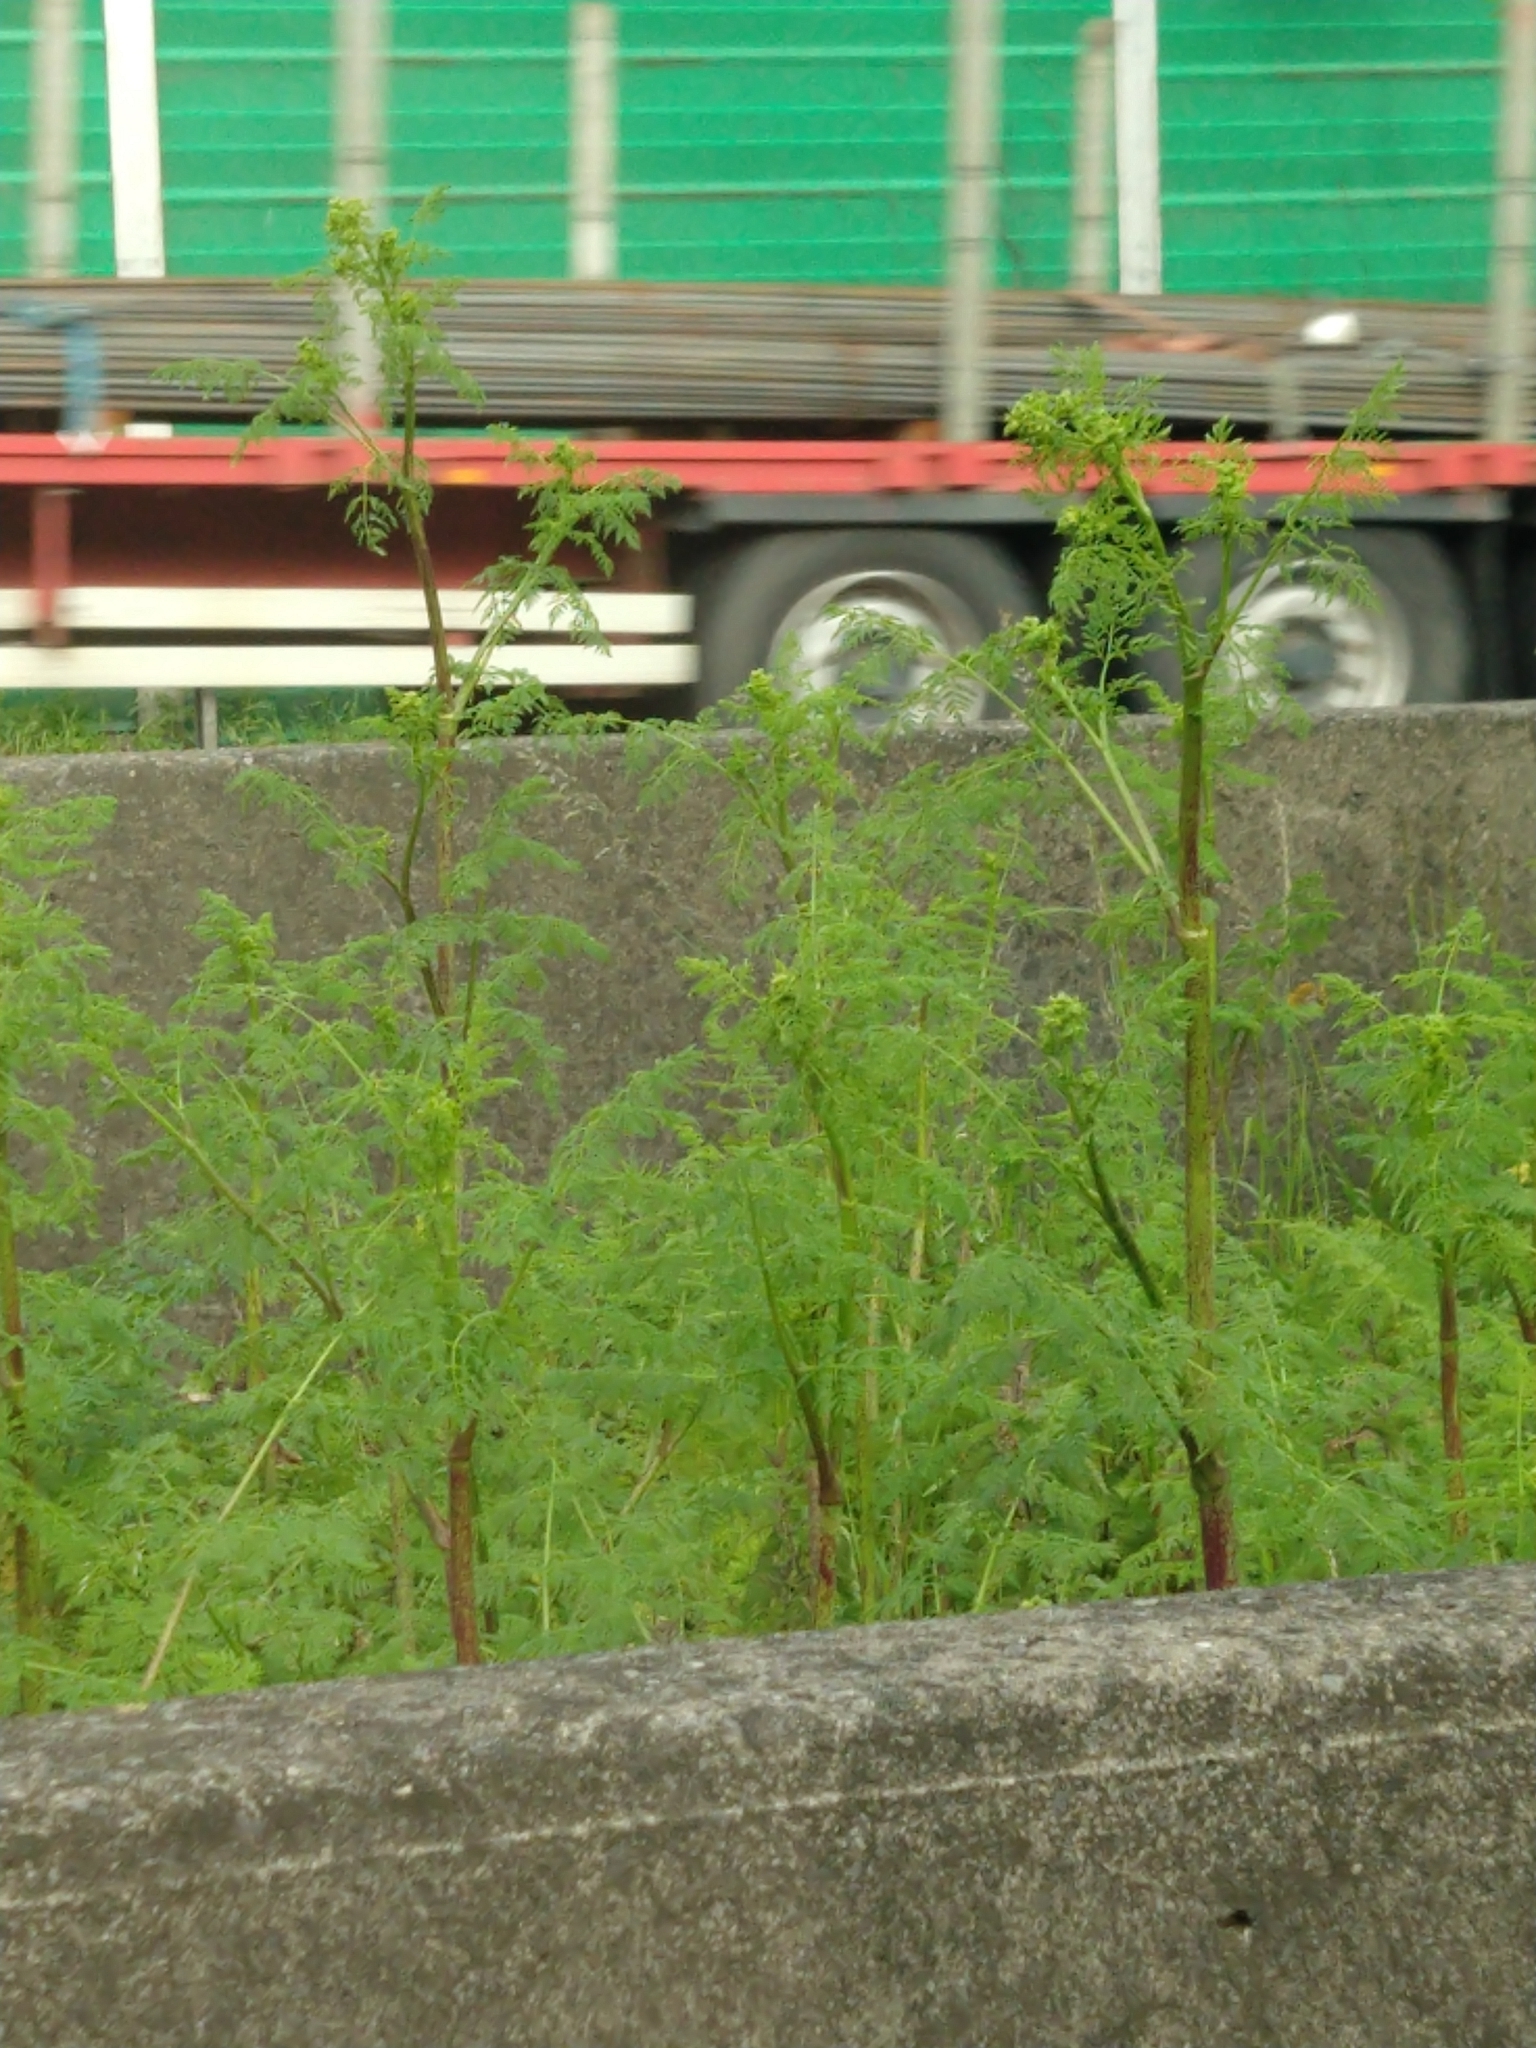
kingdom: Plantae
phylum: Tracheophyta
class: Magnoliopsida
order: Apiales
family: Apiaceae
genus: Conium
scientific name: Conium maculatum
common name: Hemlock
